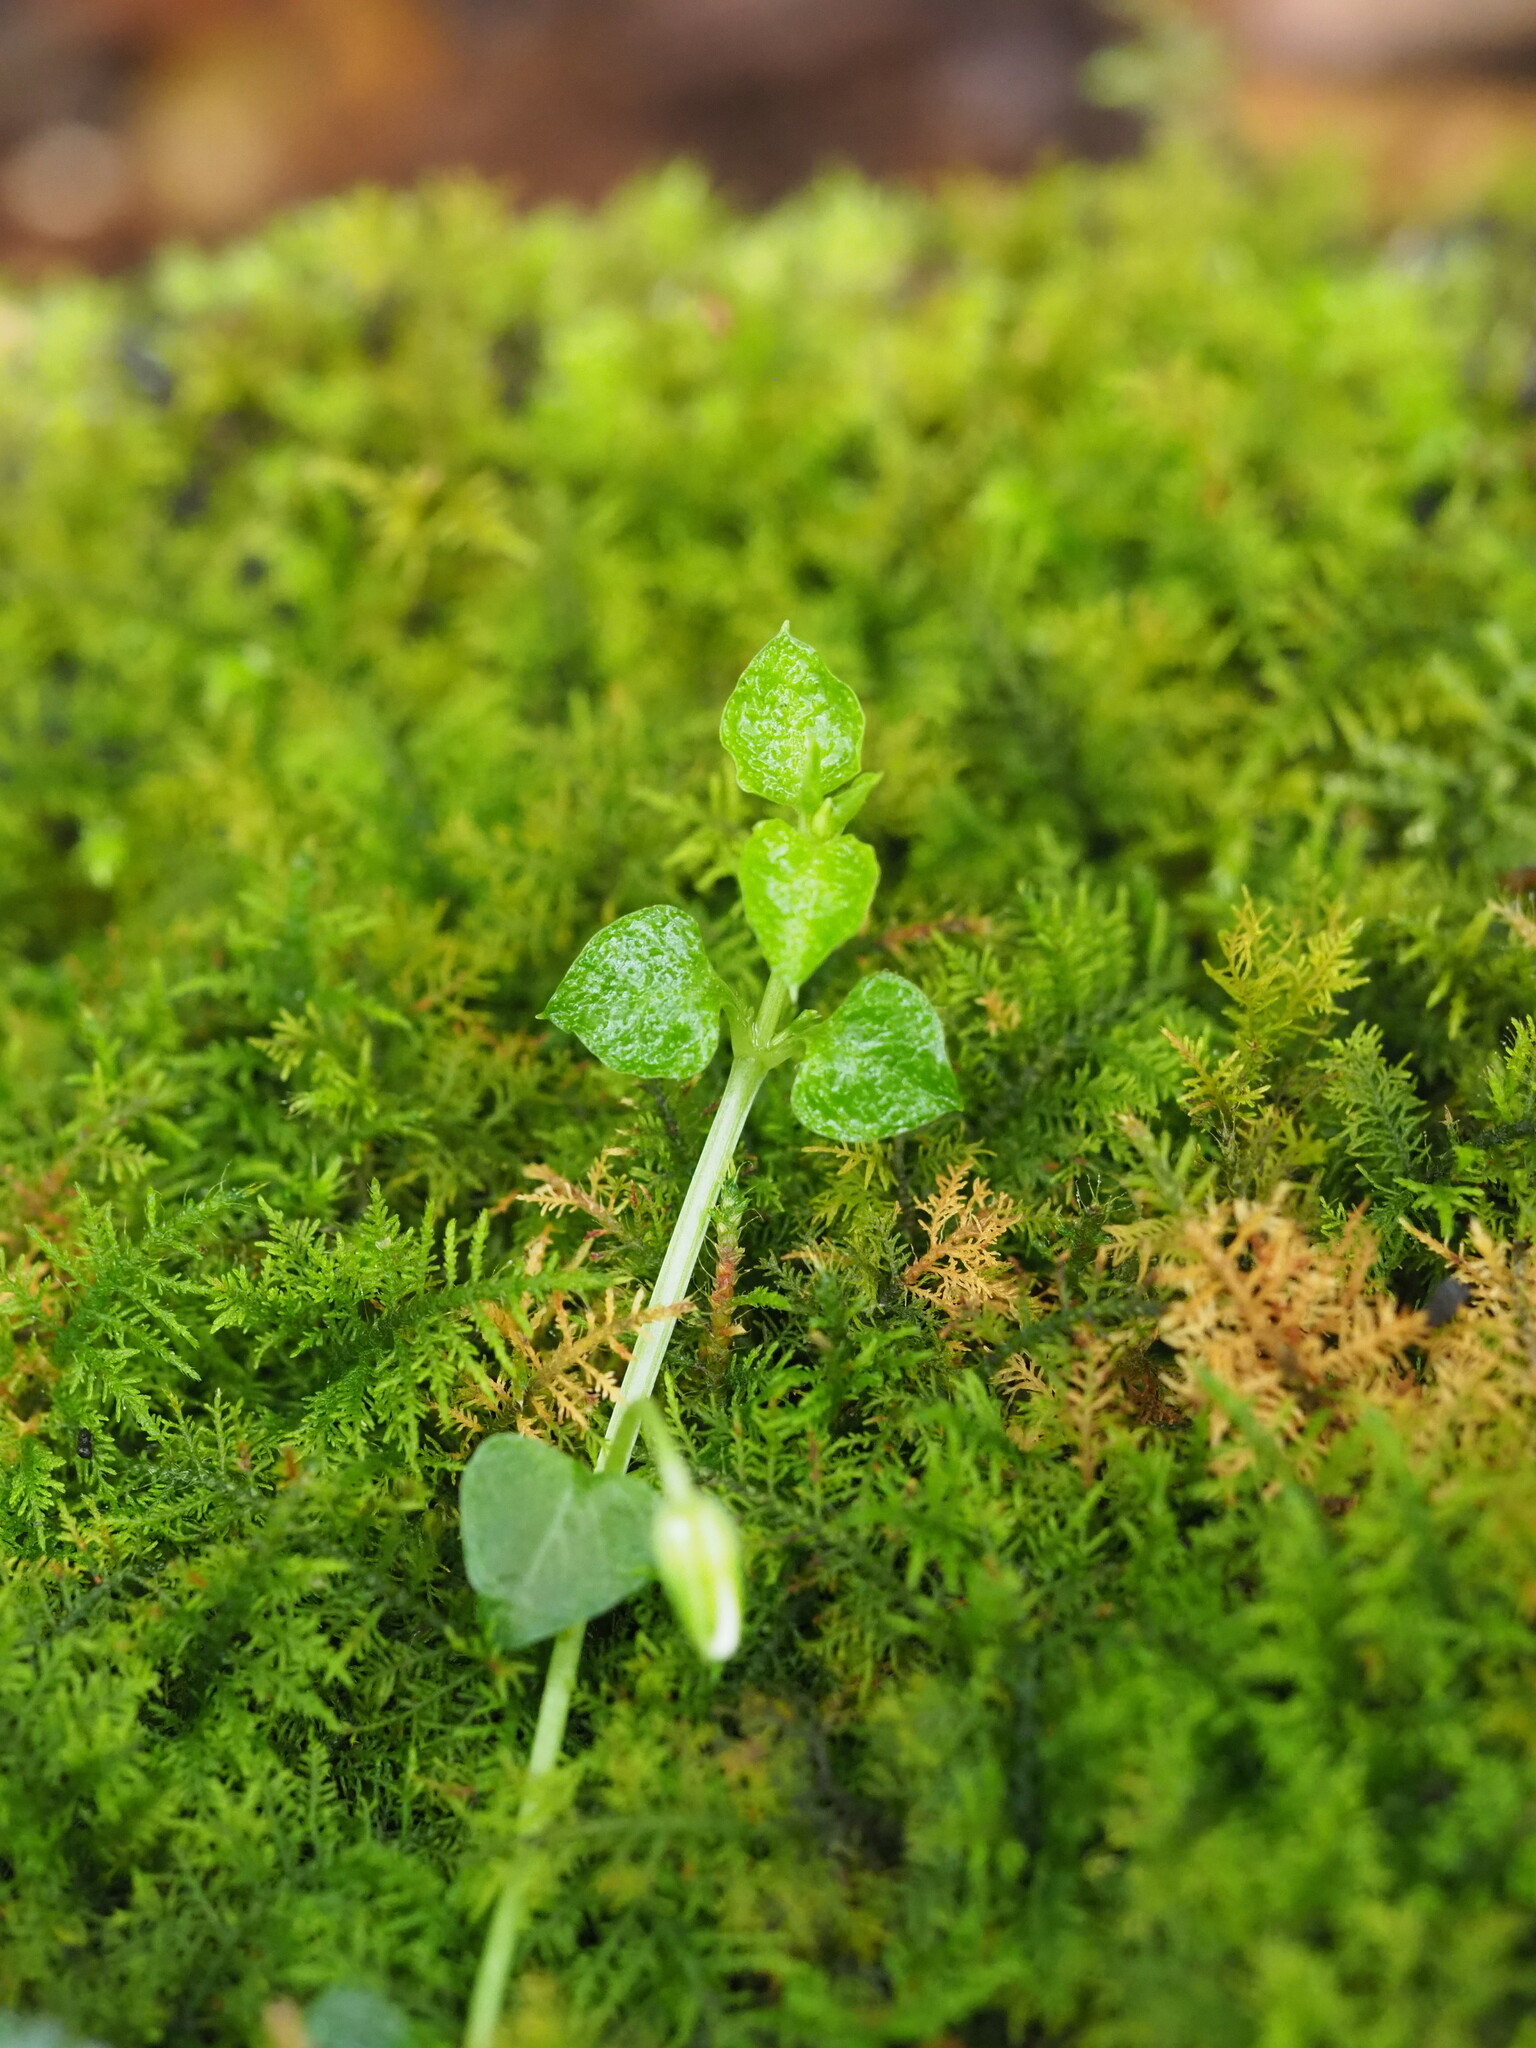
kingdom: Plantae
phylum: Tracheophyta
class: Magnoliopsida
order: Caryophyllales
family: Caryophyllaceae
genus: Nubelaria
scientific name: Nubelaria arisanensis
